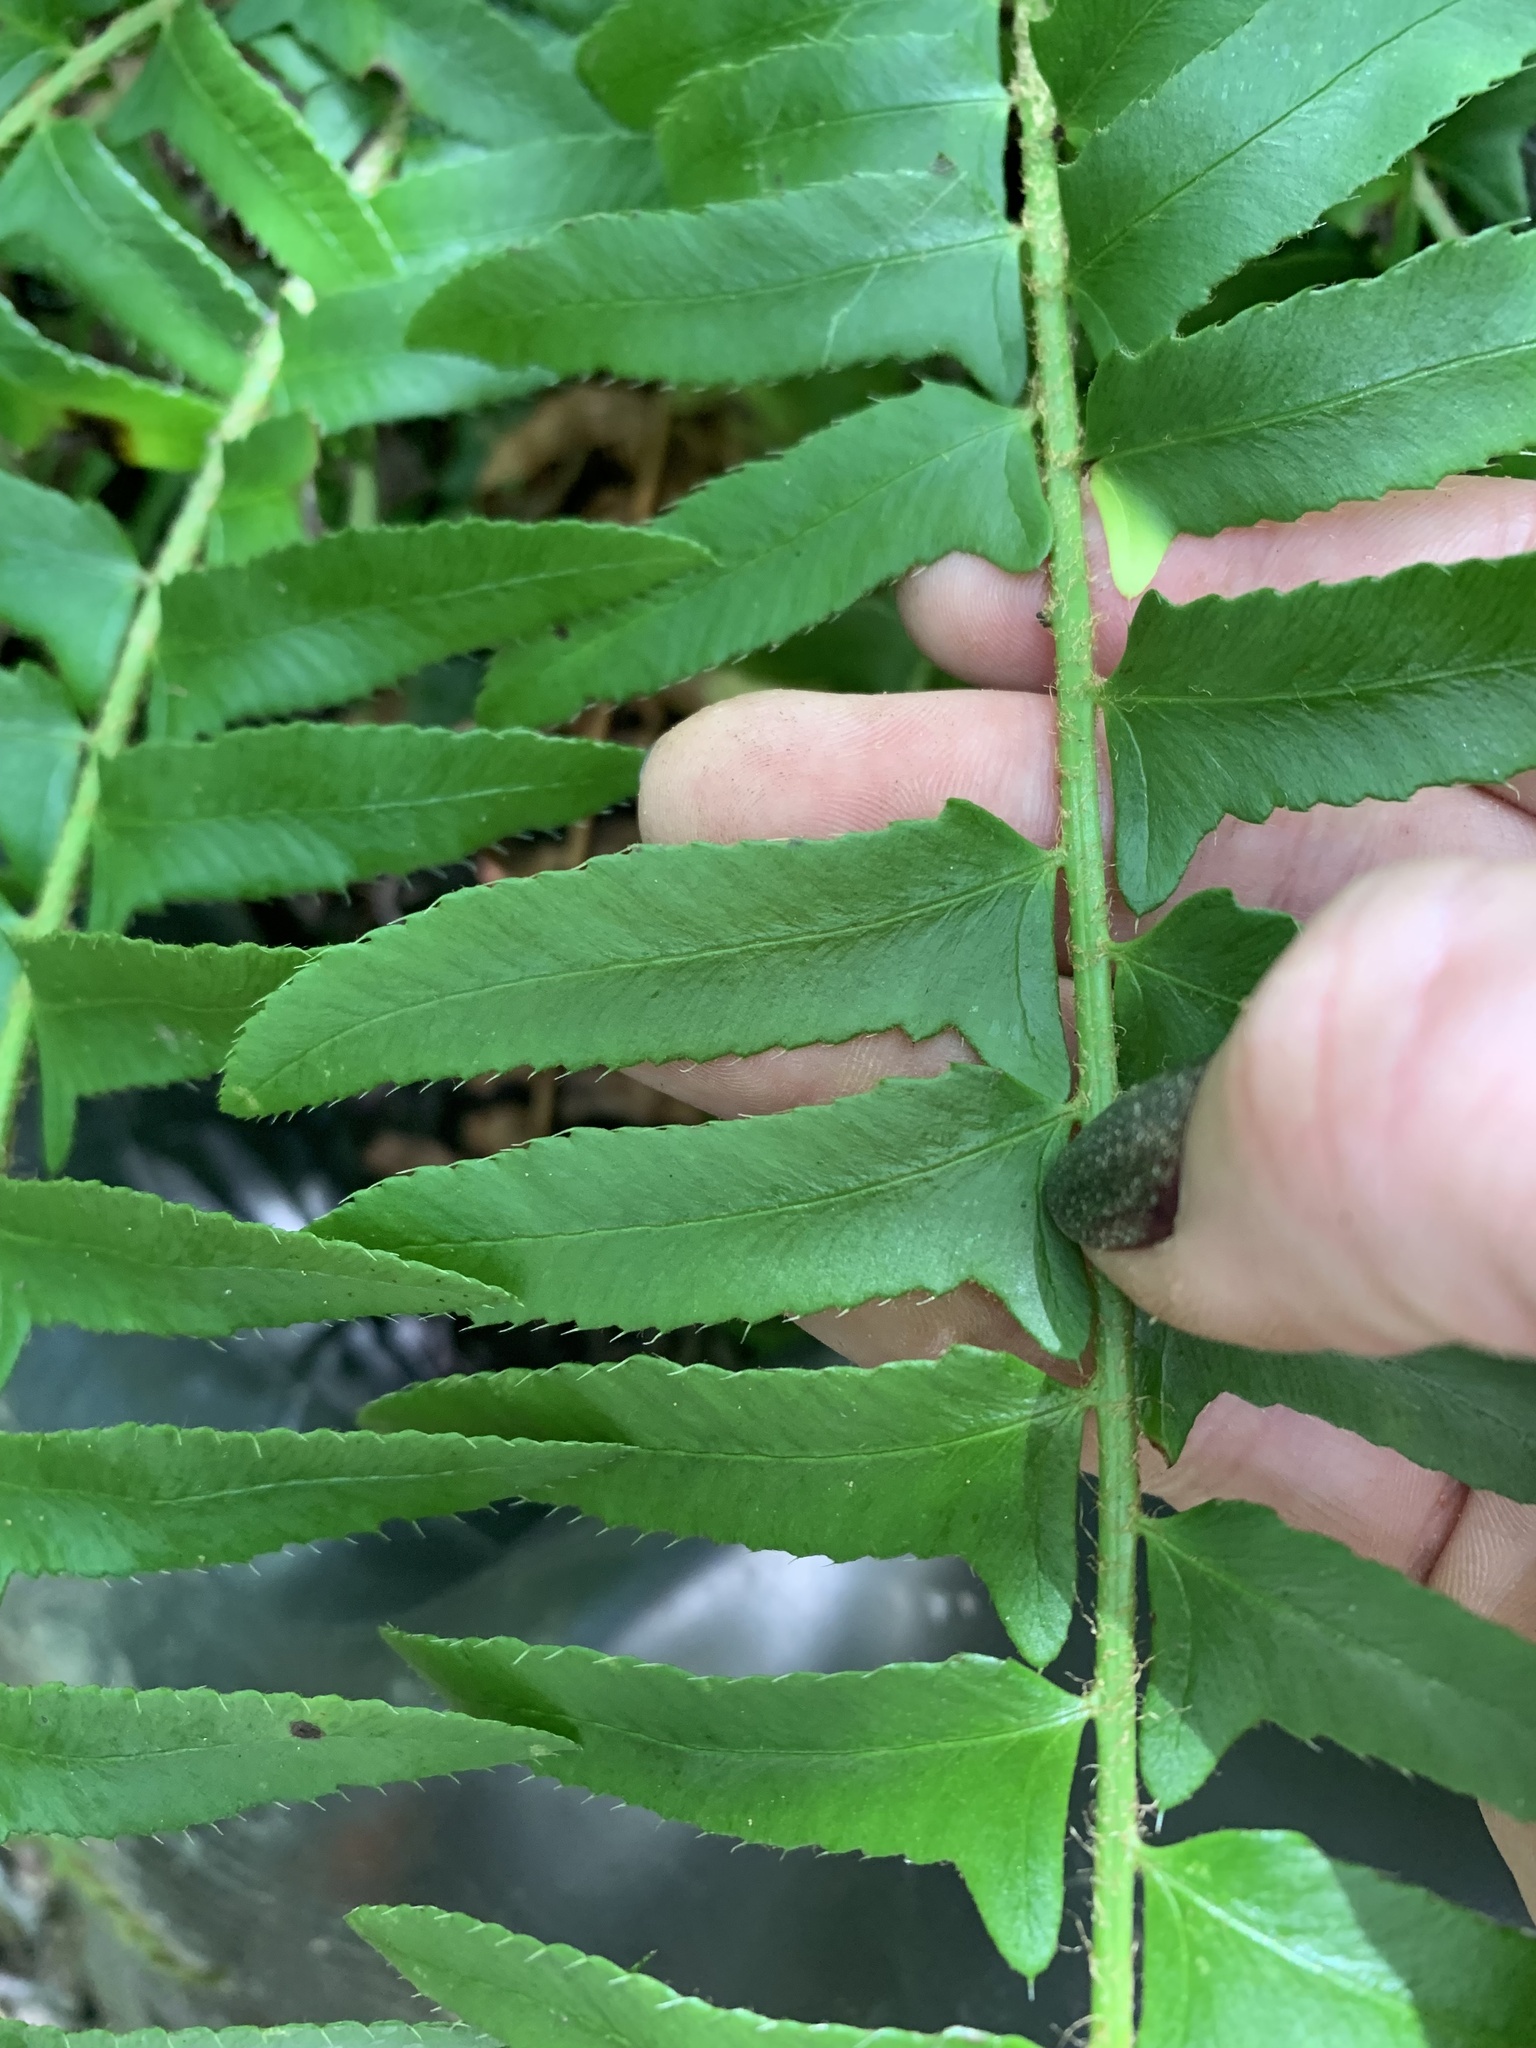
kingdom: Plantae
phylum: Tracheophyta
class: Polypodiopsida
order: Polypodiales
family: Dryopteridaceae
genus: Polystichum
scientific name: Polystichum acrostichoides
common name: Christmas fern
